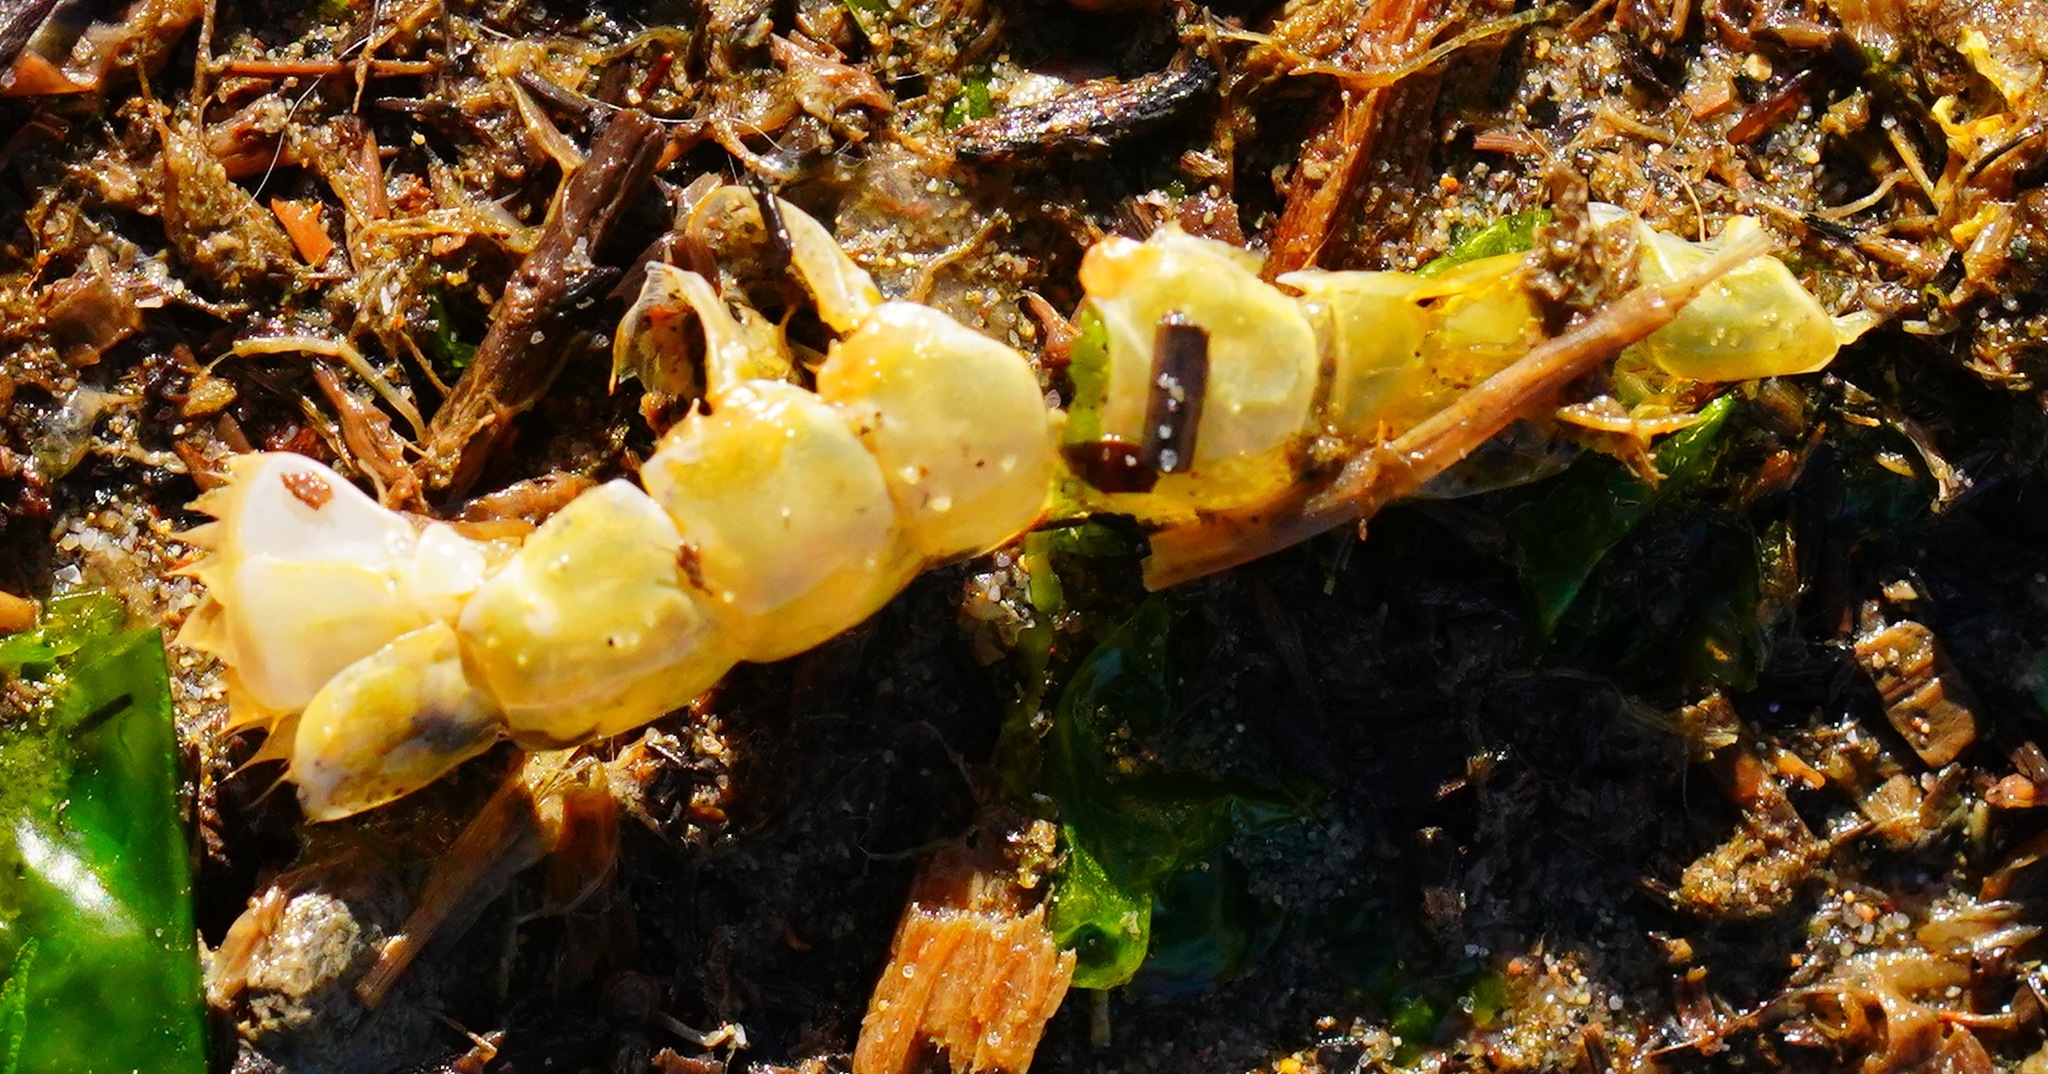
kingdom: Animalia
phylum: Arthropoda
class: Malacostraca
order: Decapoda
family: Callianassidae
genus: Neotrypaea
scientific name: Neotrypaea californiensis
